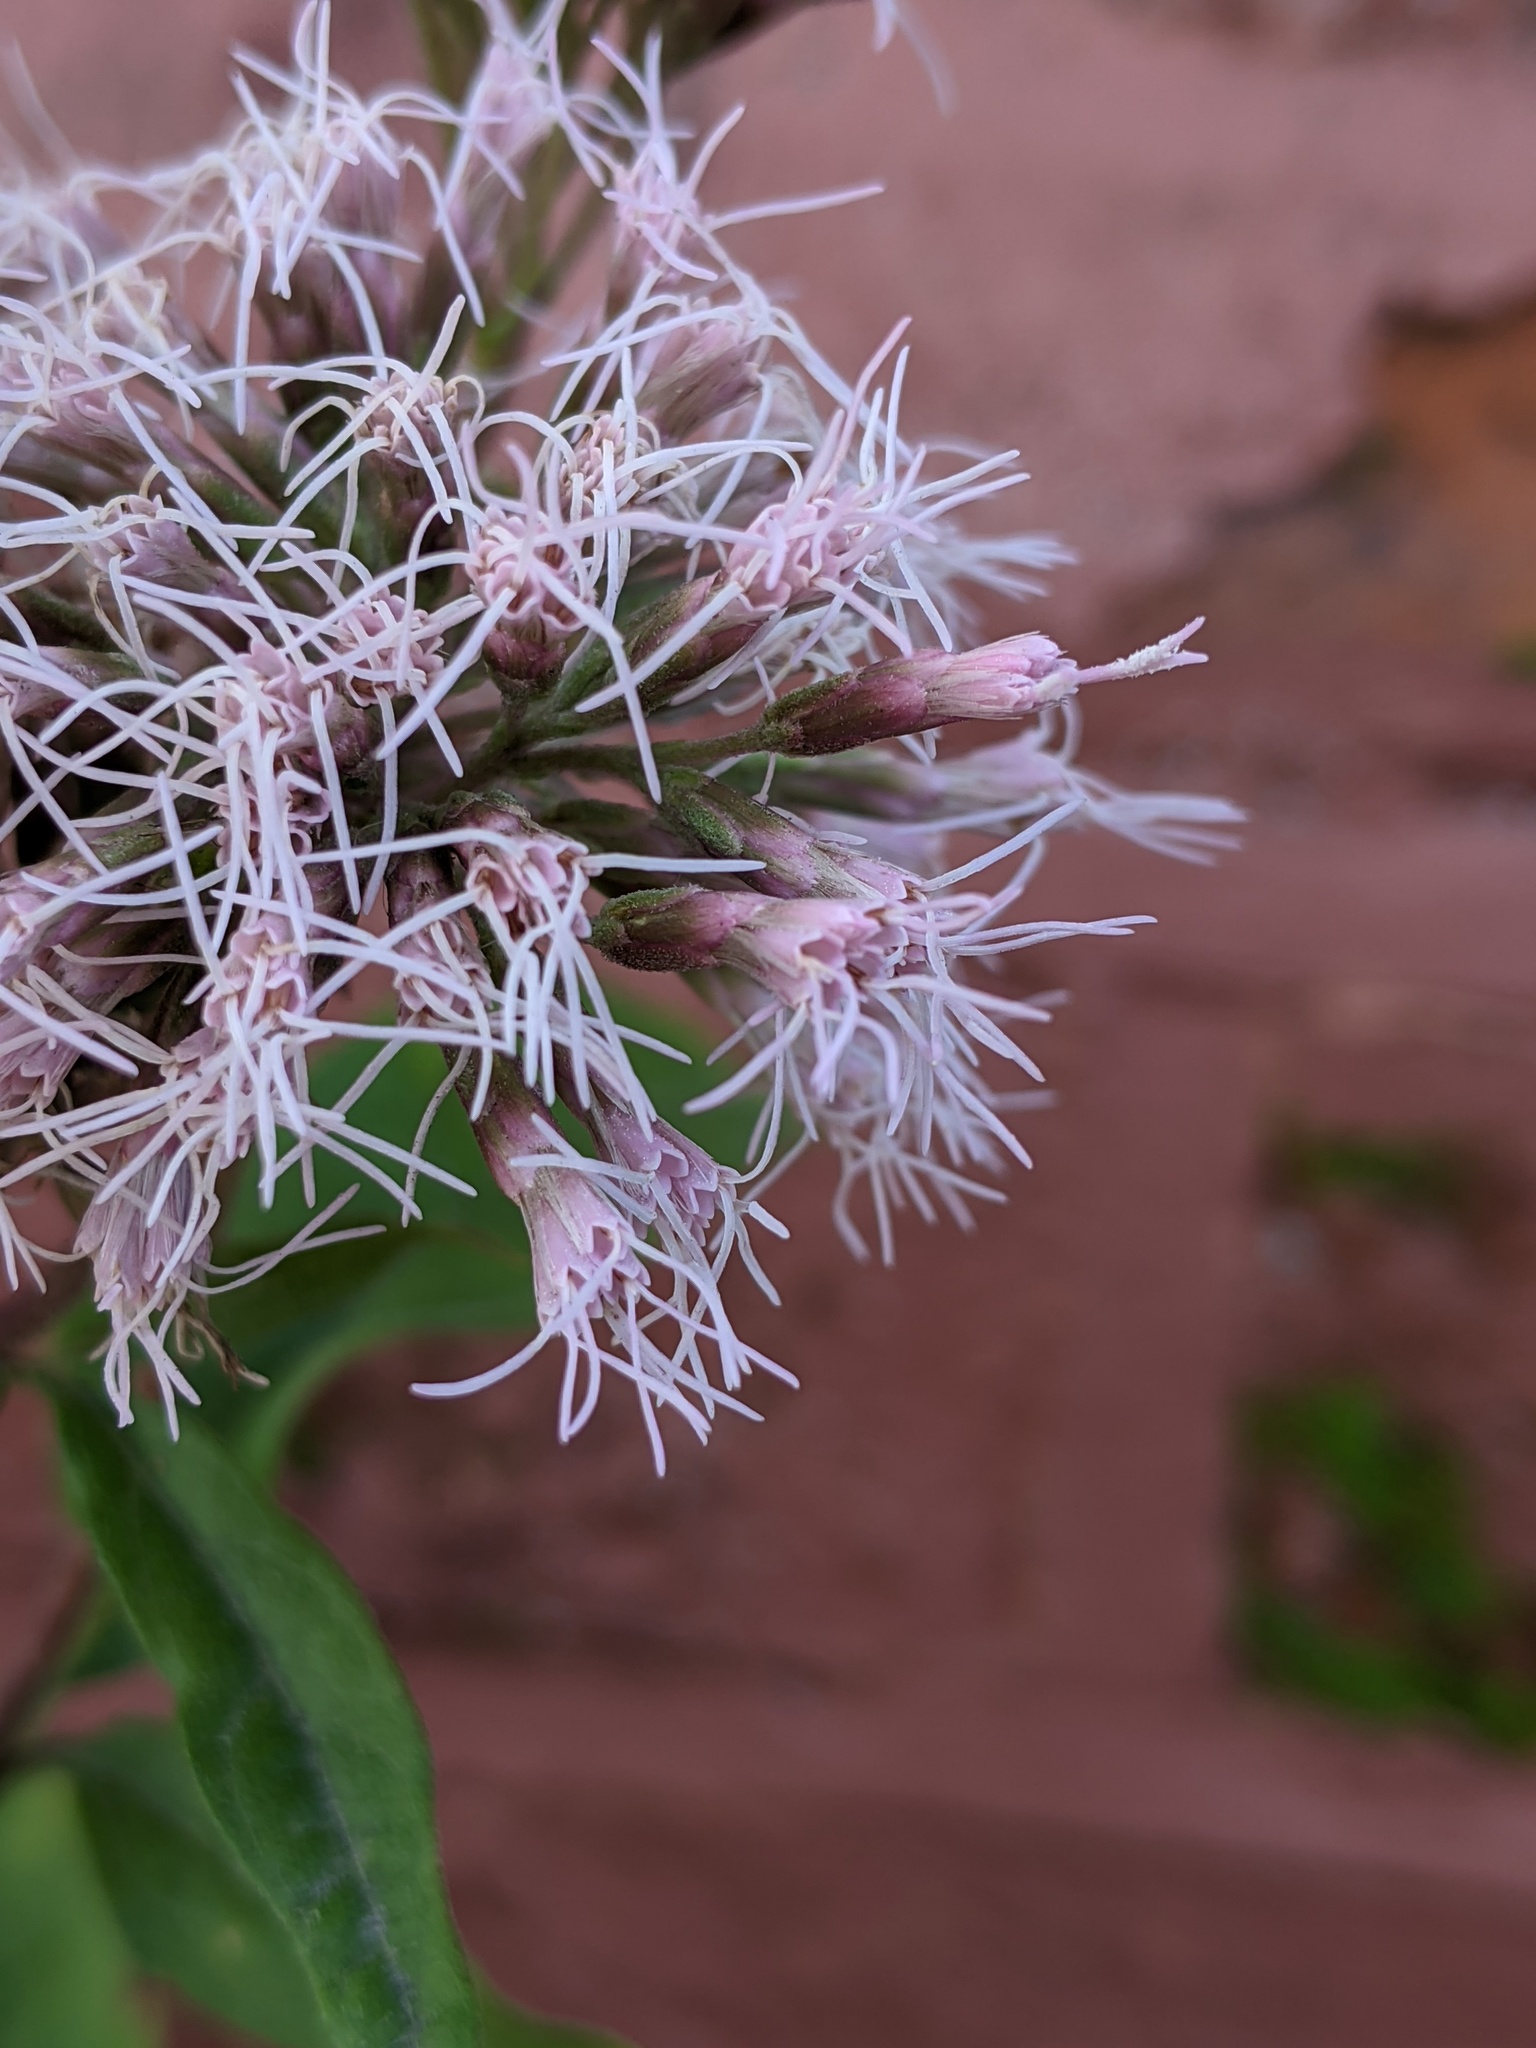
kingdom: Plantae
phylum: Tracheophyta
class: Magnoliopsida
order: Asterales
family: Asteraceae
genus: Eupatorium
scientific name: Eupatorium cannabinum
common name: Hemp-agrimony
